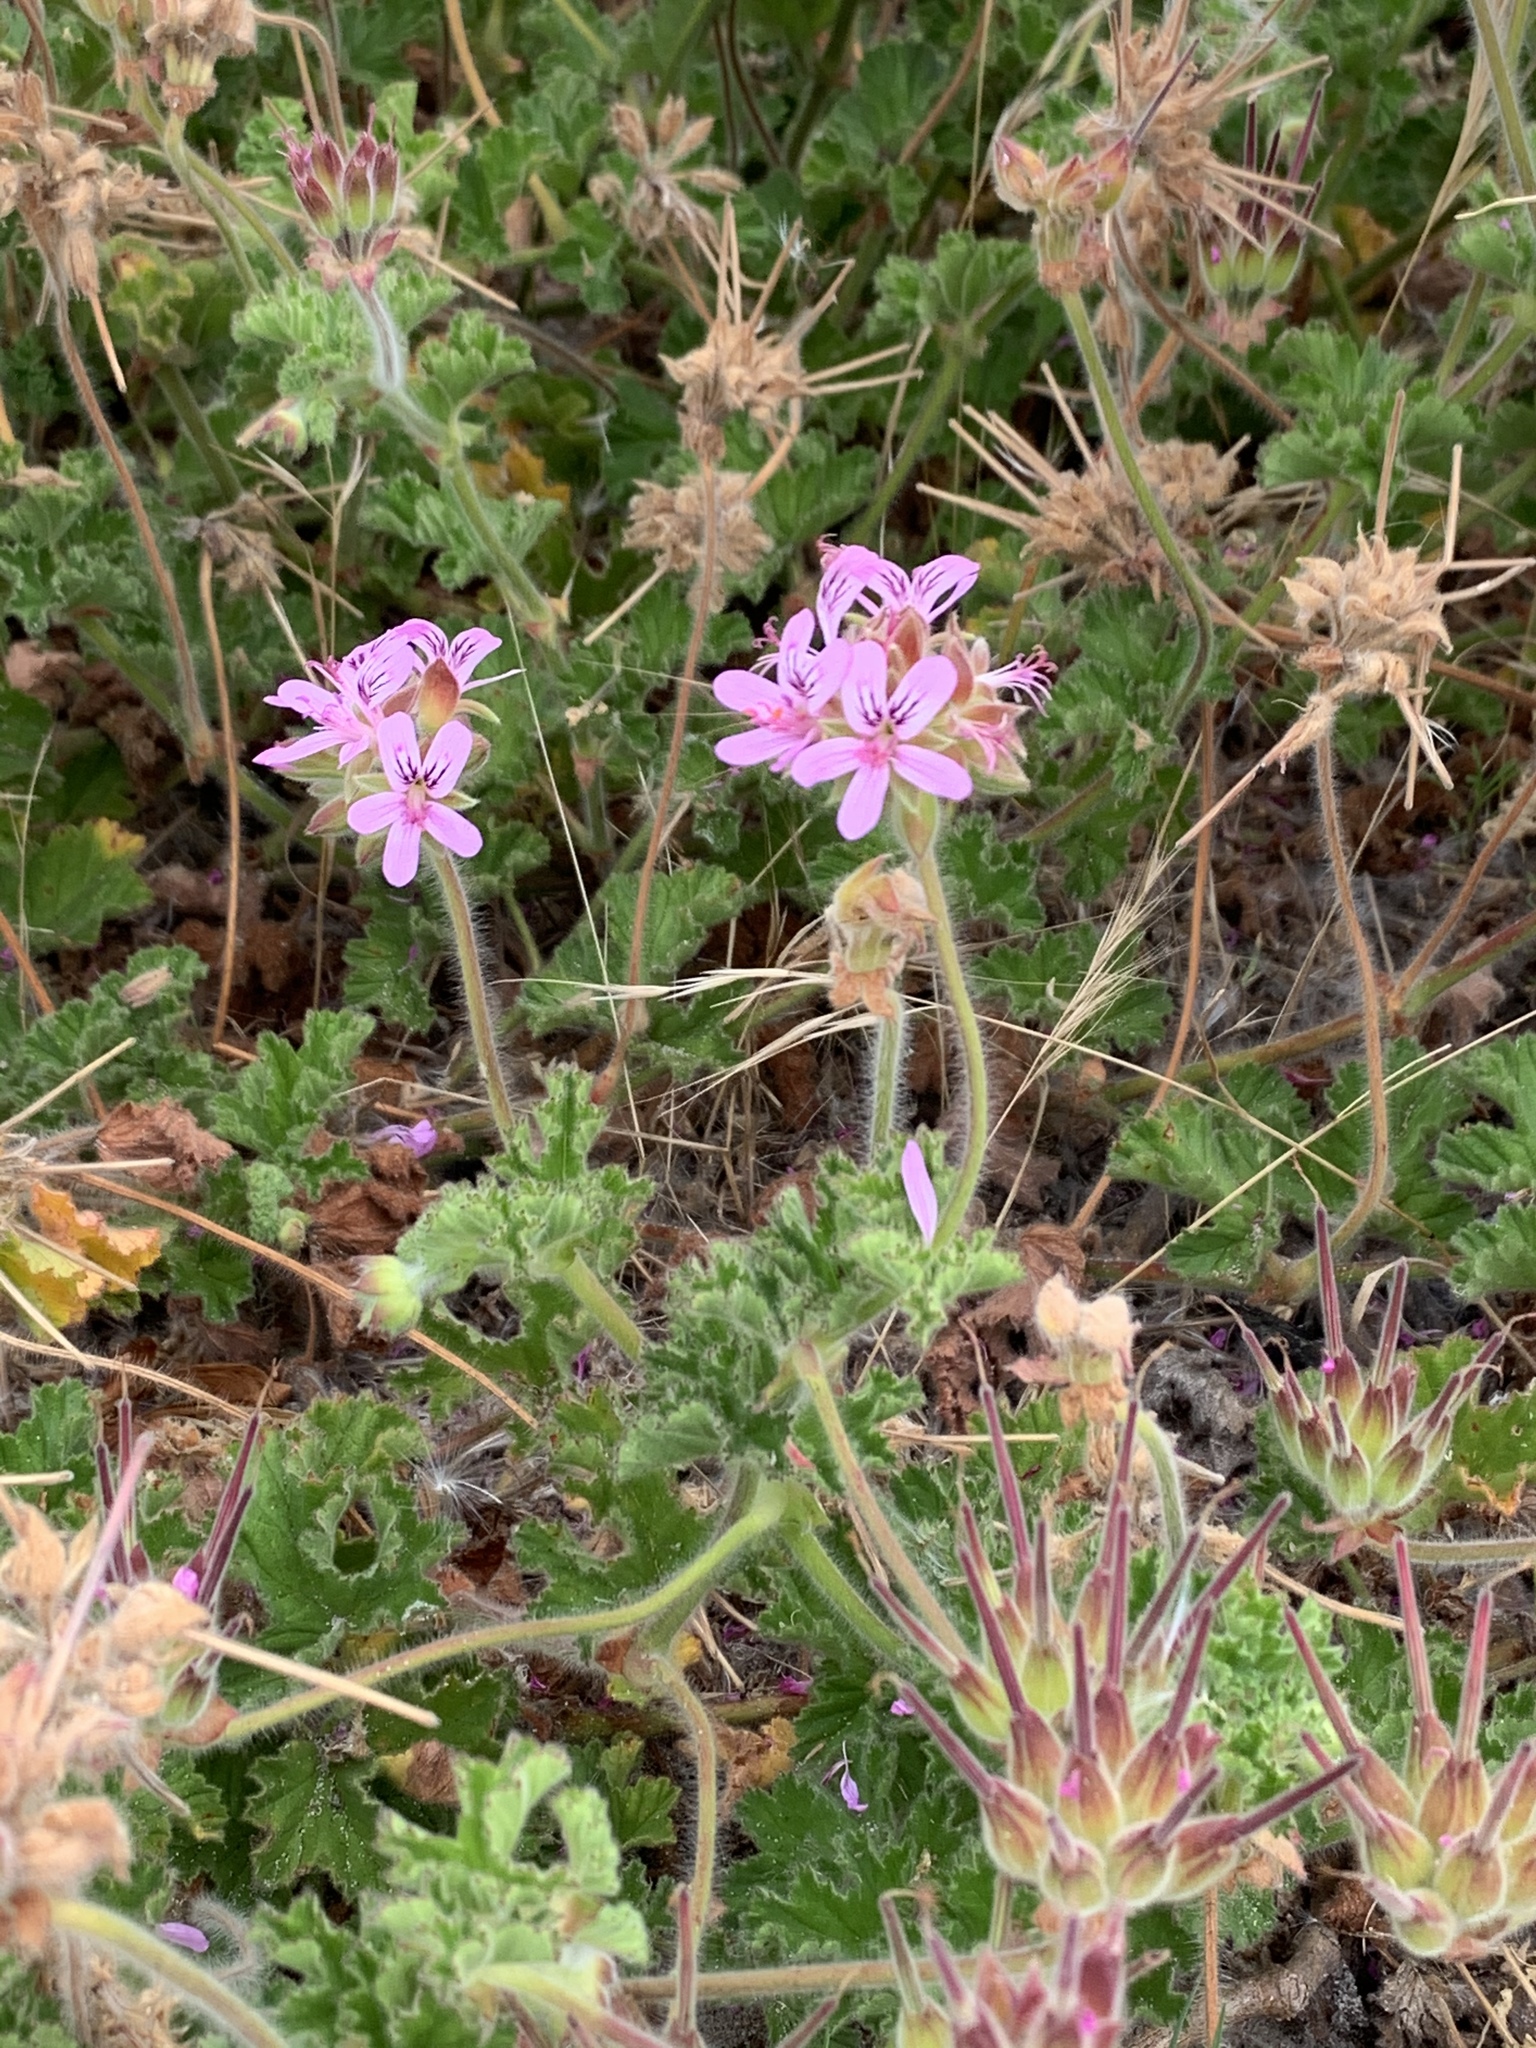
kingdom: Plantae
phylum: Tracheophyta
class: Magnoliopsida
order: Geraniales
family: Geraniaceae
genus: Pelargonium
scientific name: Pelargonium capitatum
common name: Rose scented geranium
